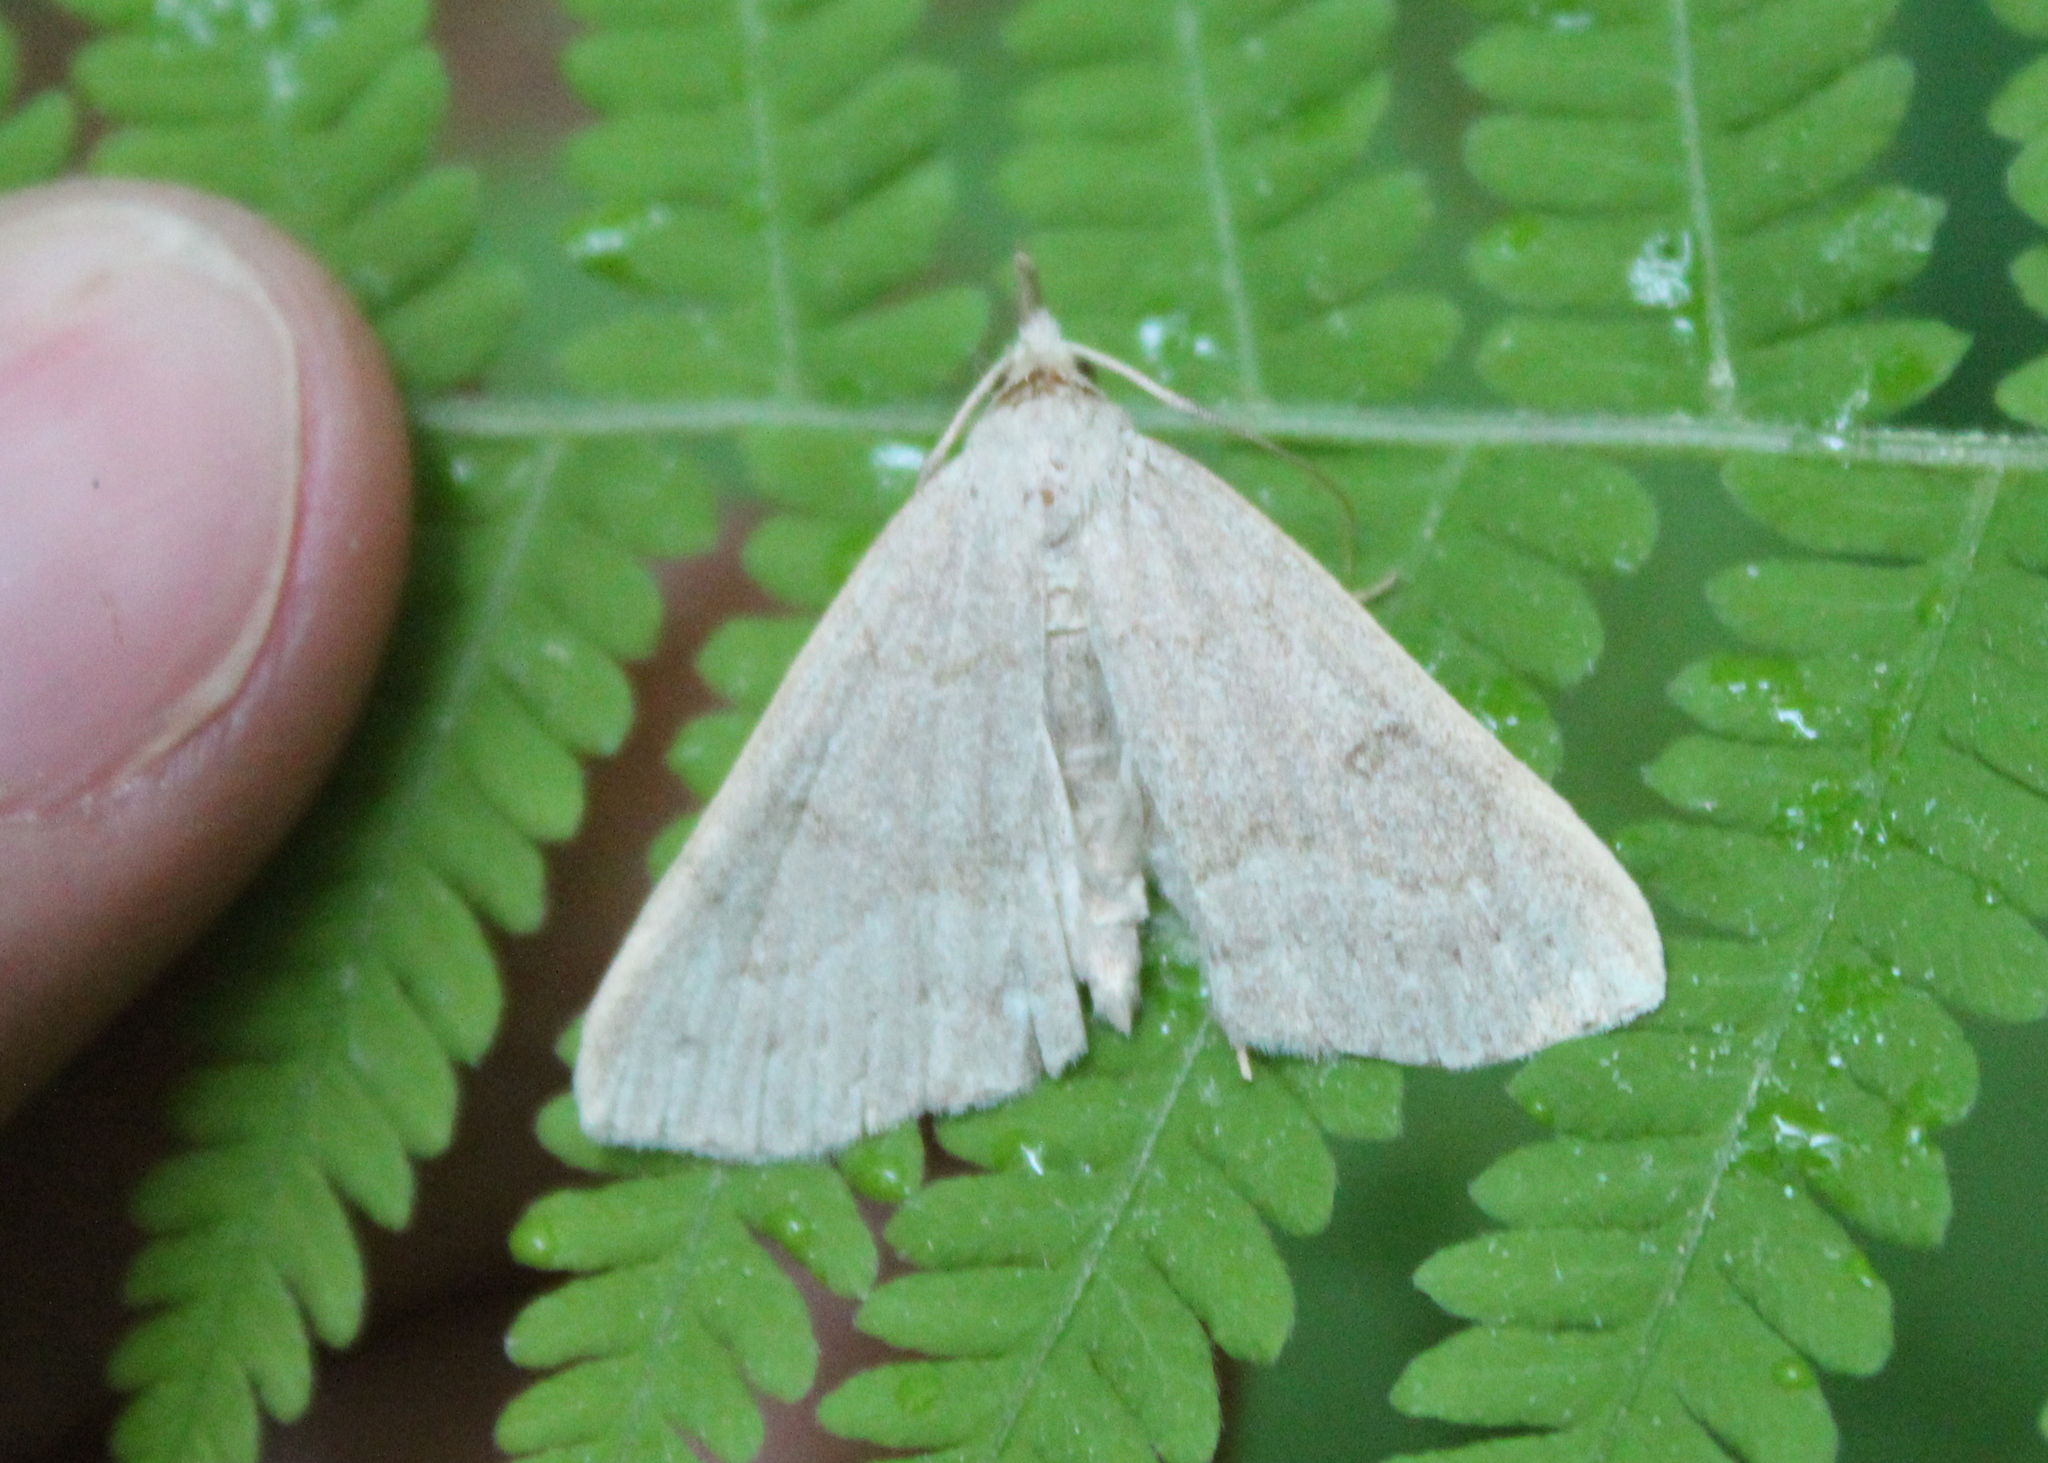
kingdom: Animalia
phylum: Arthropoda
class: Insecta
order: Lepidoptera
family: Erebidae
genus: Macrochilo
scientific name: Macrochilo morbidalis
